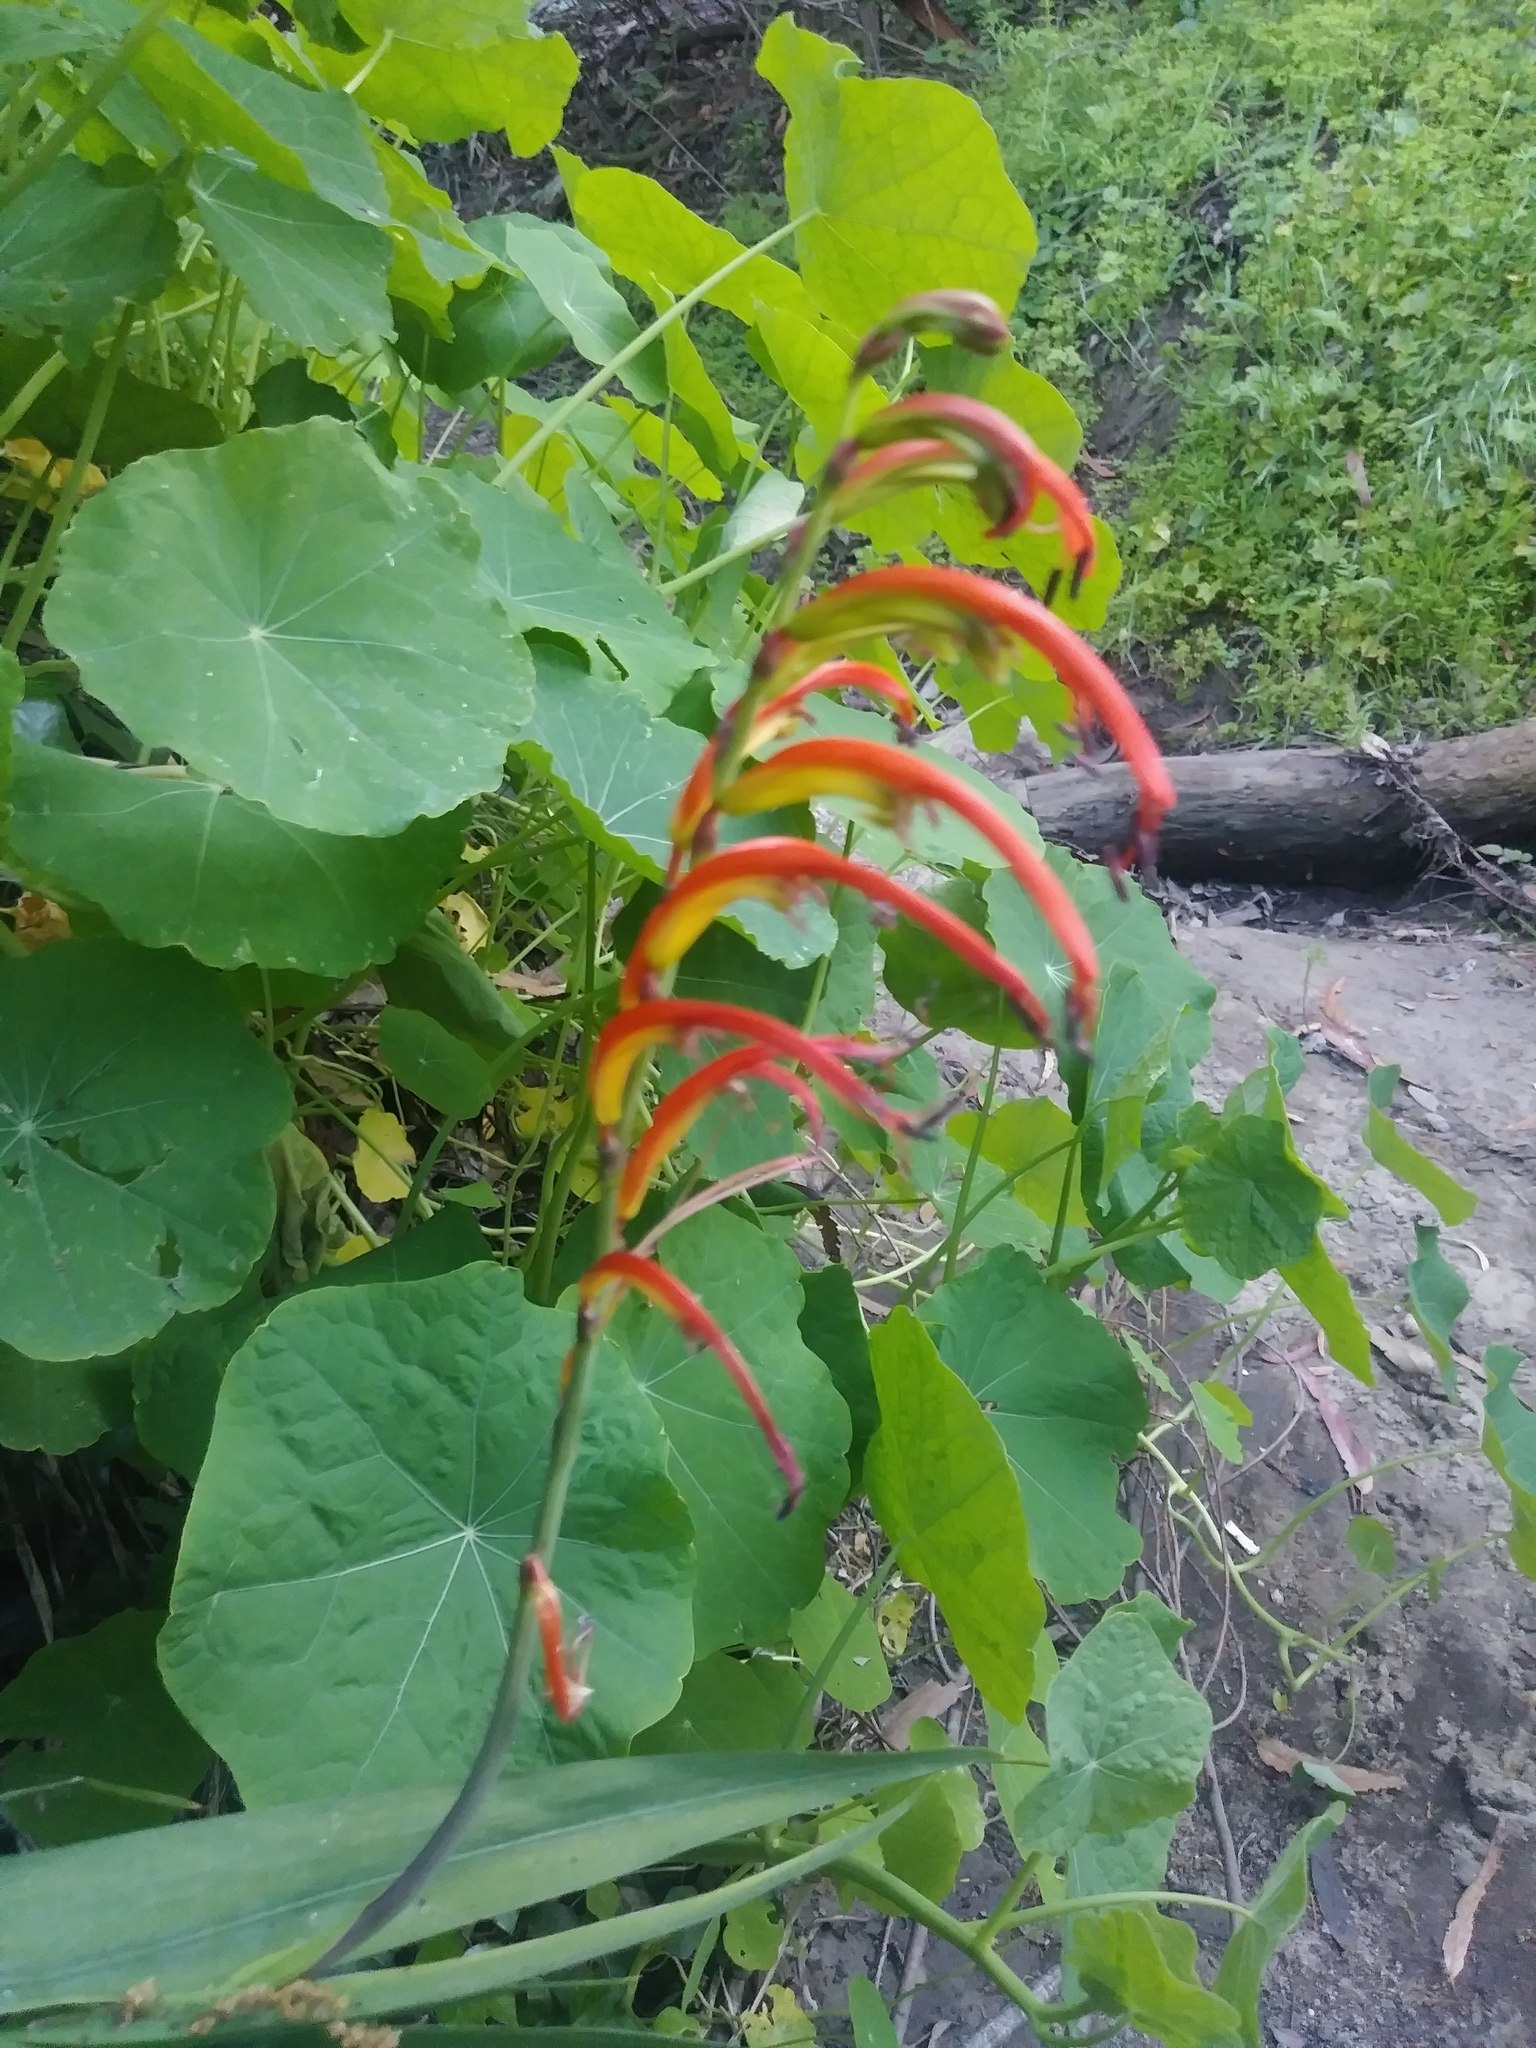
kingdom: Plantae
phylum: Tracheophyta
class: Liliopsida
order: Asparagales
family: Iridaceae
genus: Chasmanthe
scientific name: Chasmanthe bicolor
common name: Bicolor cobra lily
